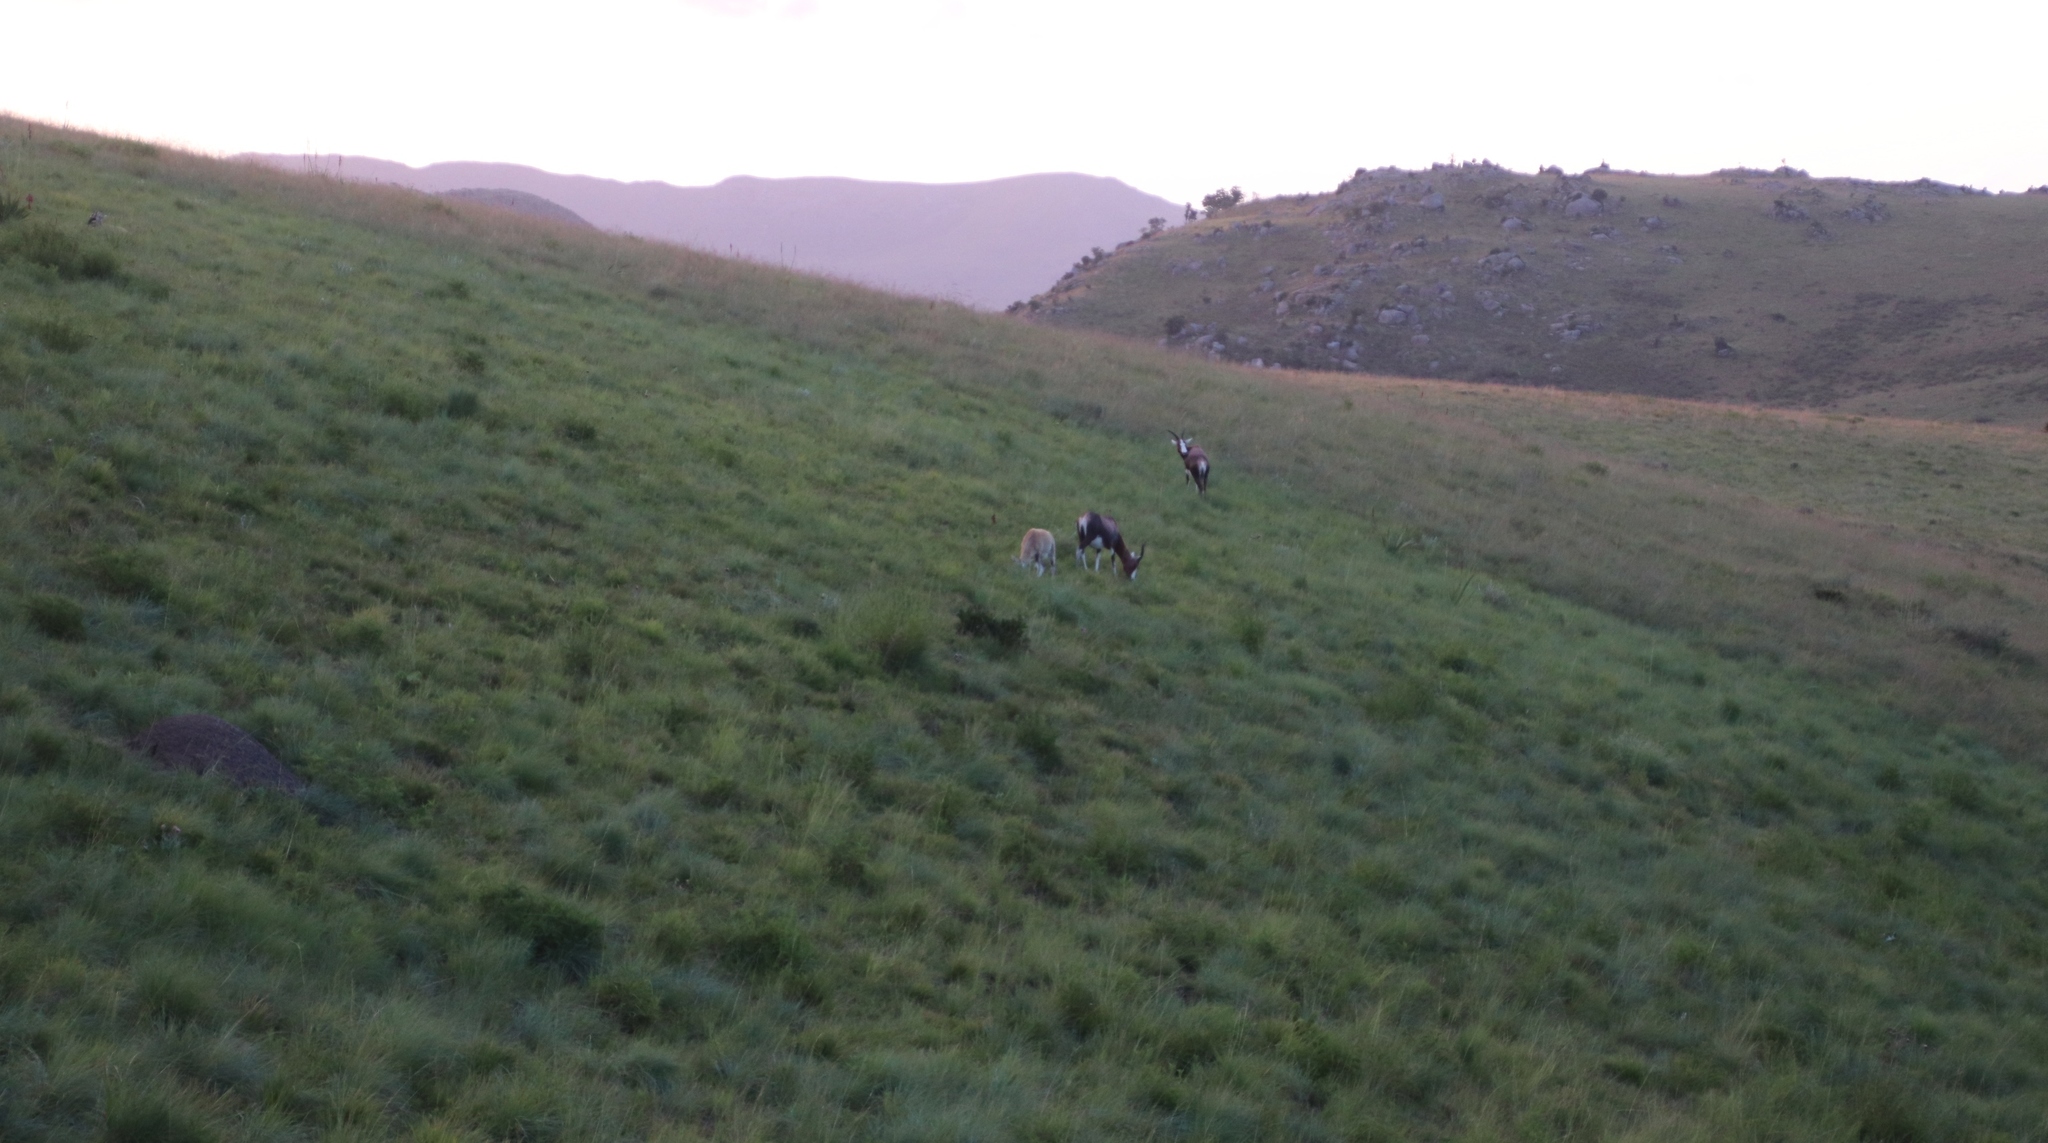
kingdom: Animalia
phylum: Chordata
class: Mammalia
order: Artiodactyla
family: Bovidae
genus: Damaliscus
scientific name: Damaliscus pygargus
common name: Bontebok
